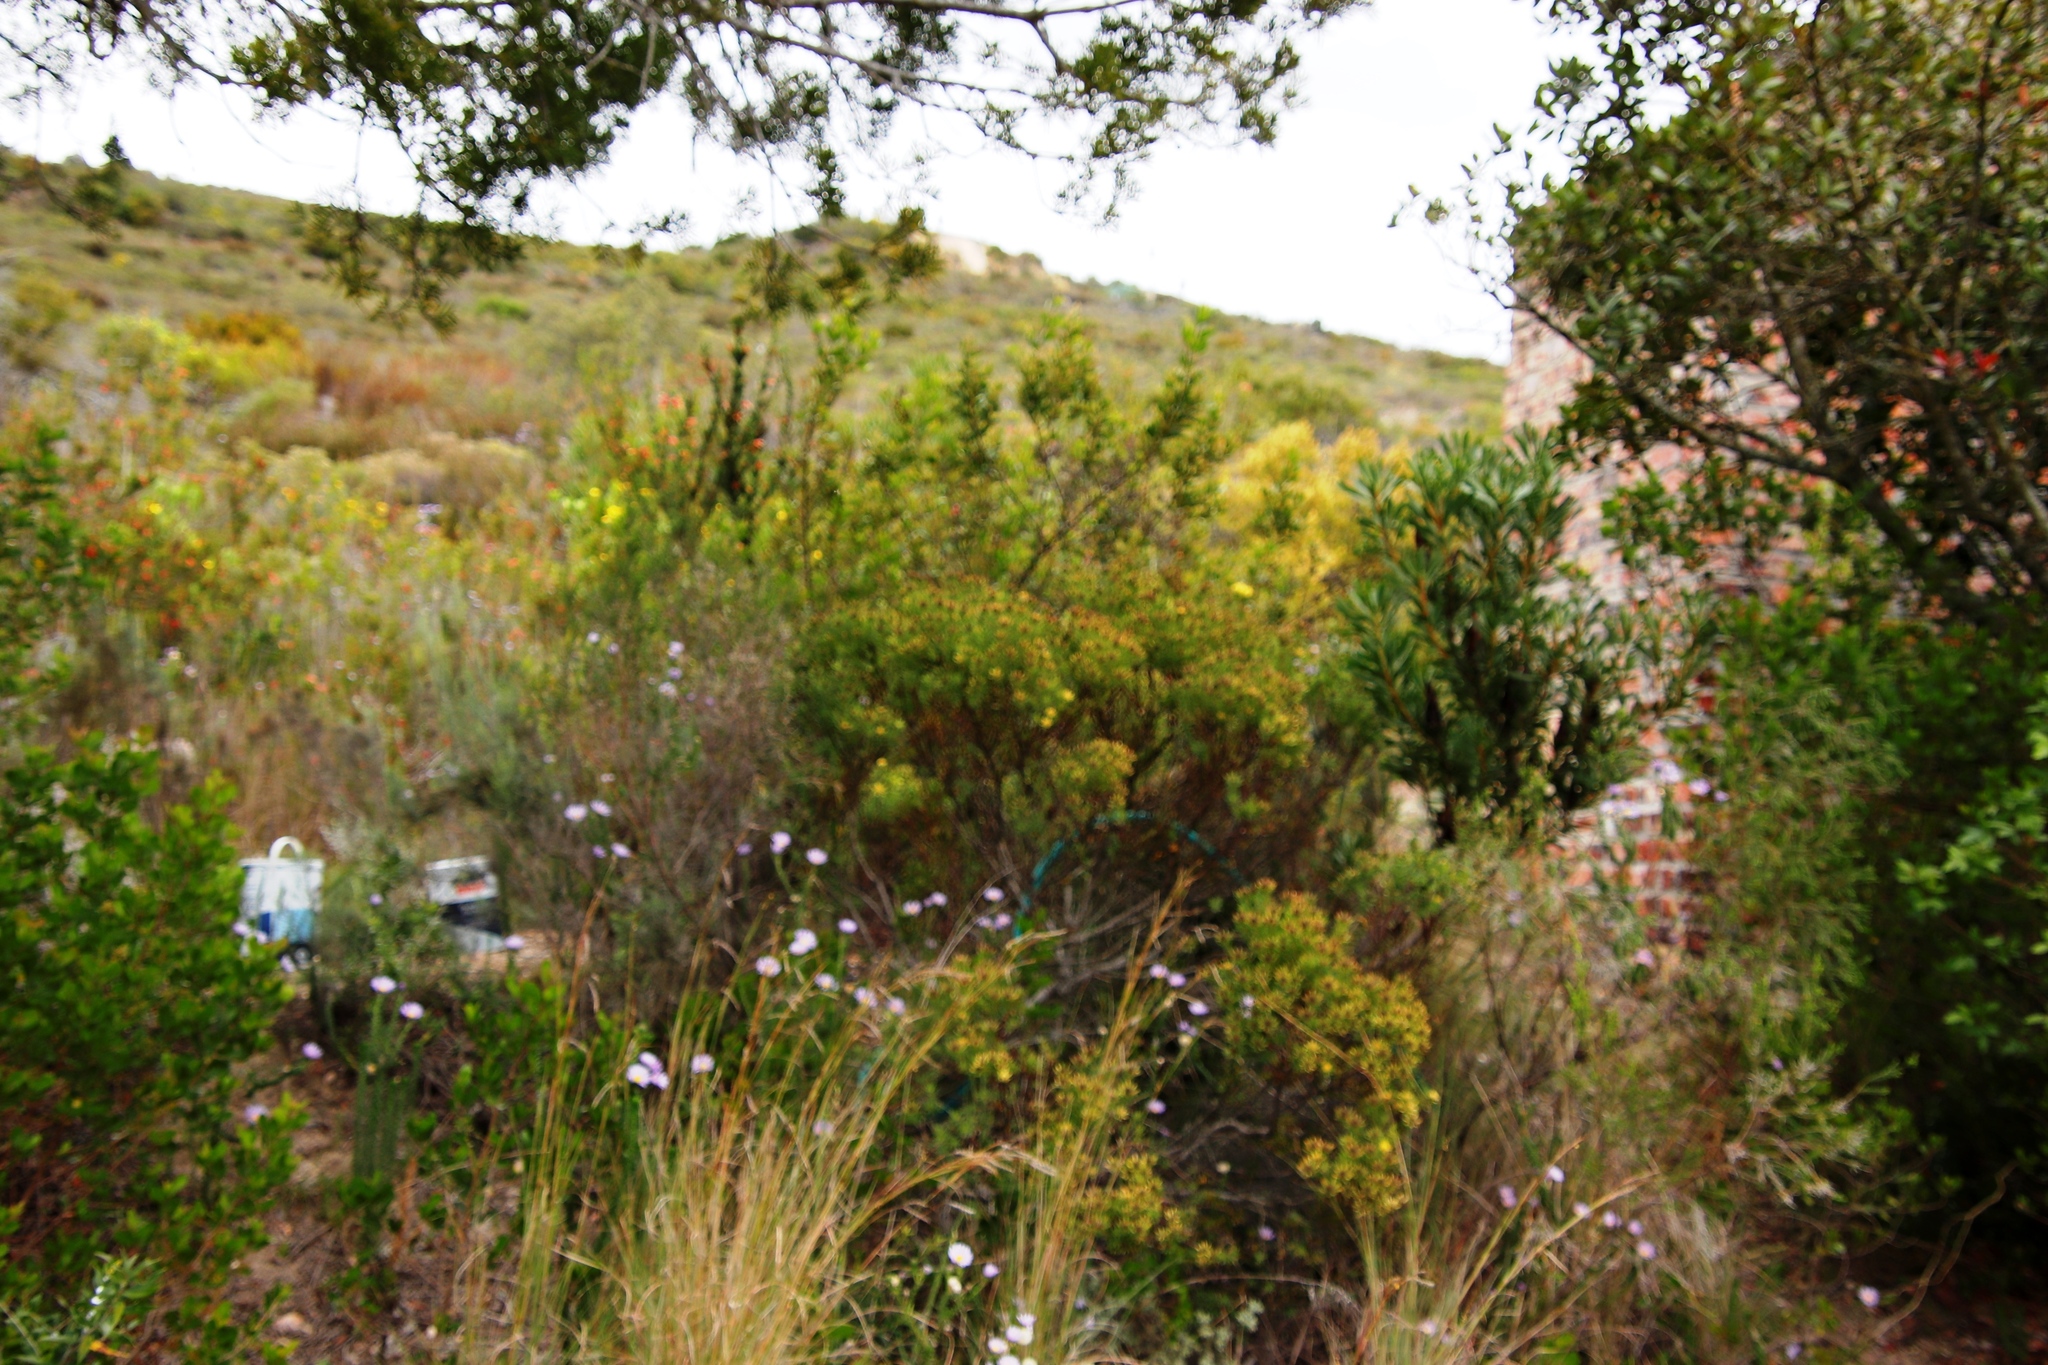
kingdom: Plantae
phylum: Tracheophyta
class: Magnoliopsida
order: Proteales
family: Proteaceae
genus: Leucadendron
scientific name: Leucadendron modestum
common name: Rough-leaf conebush
